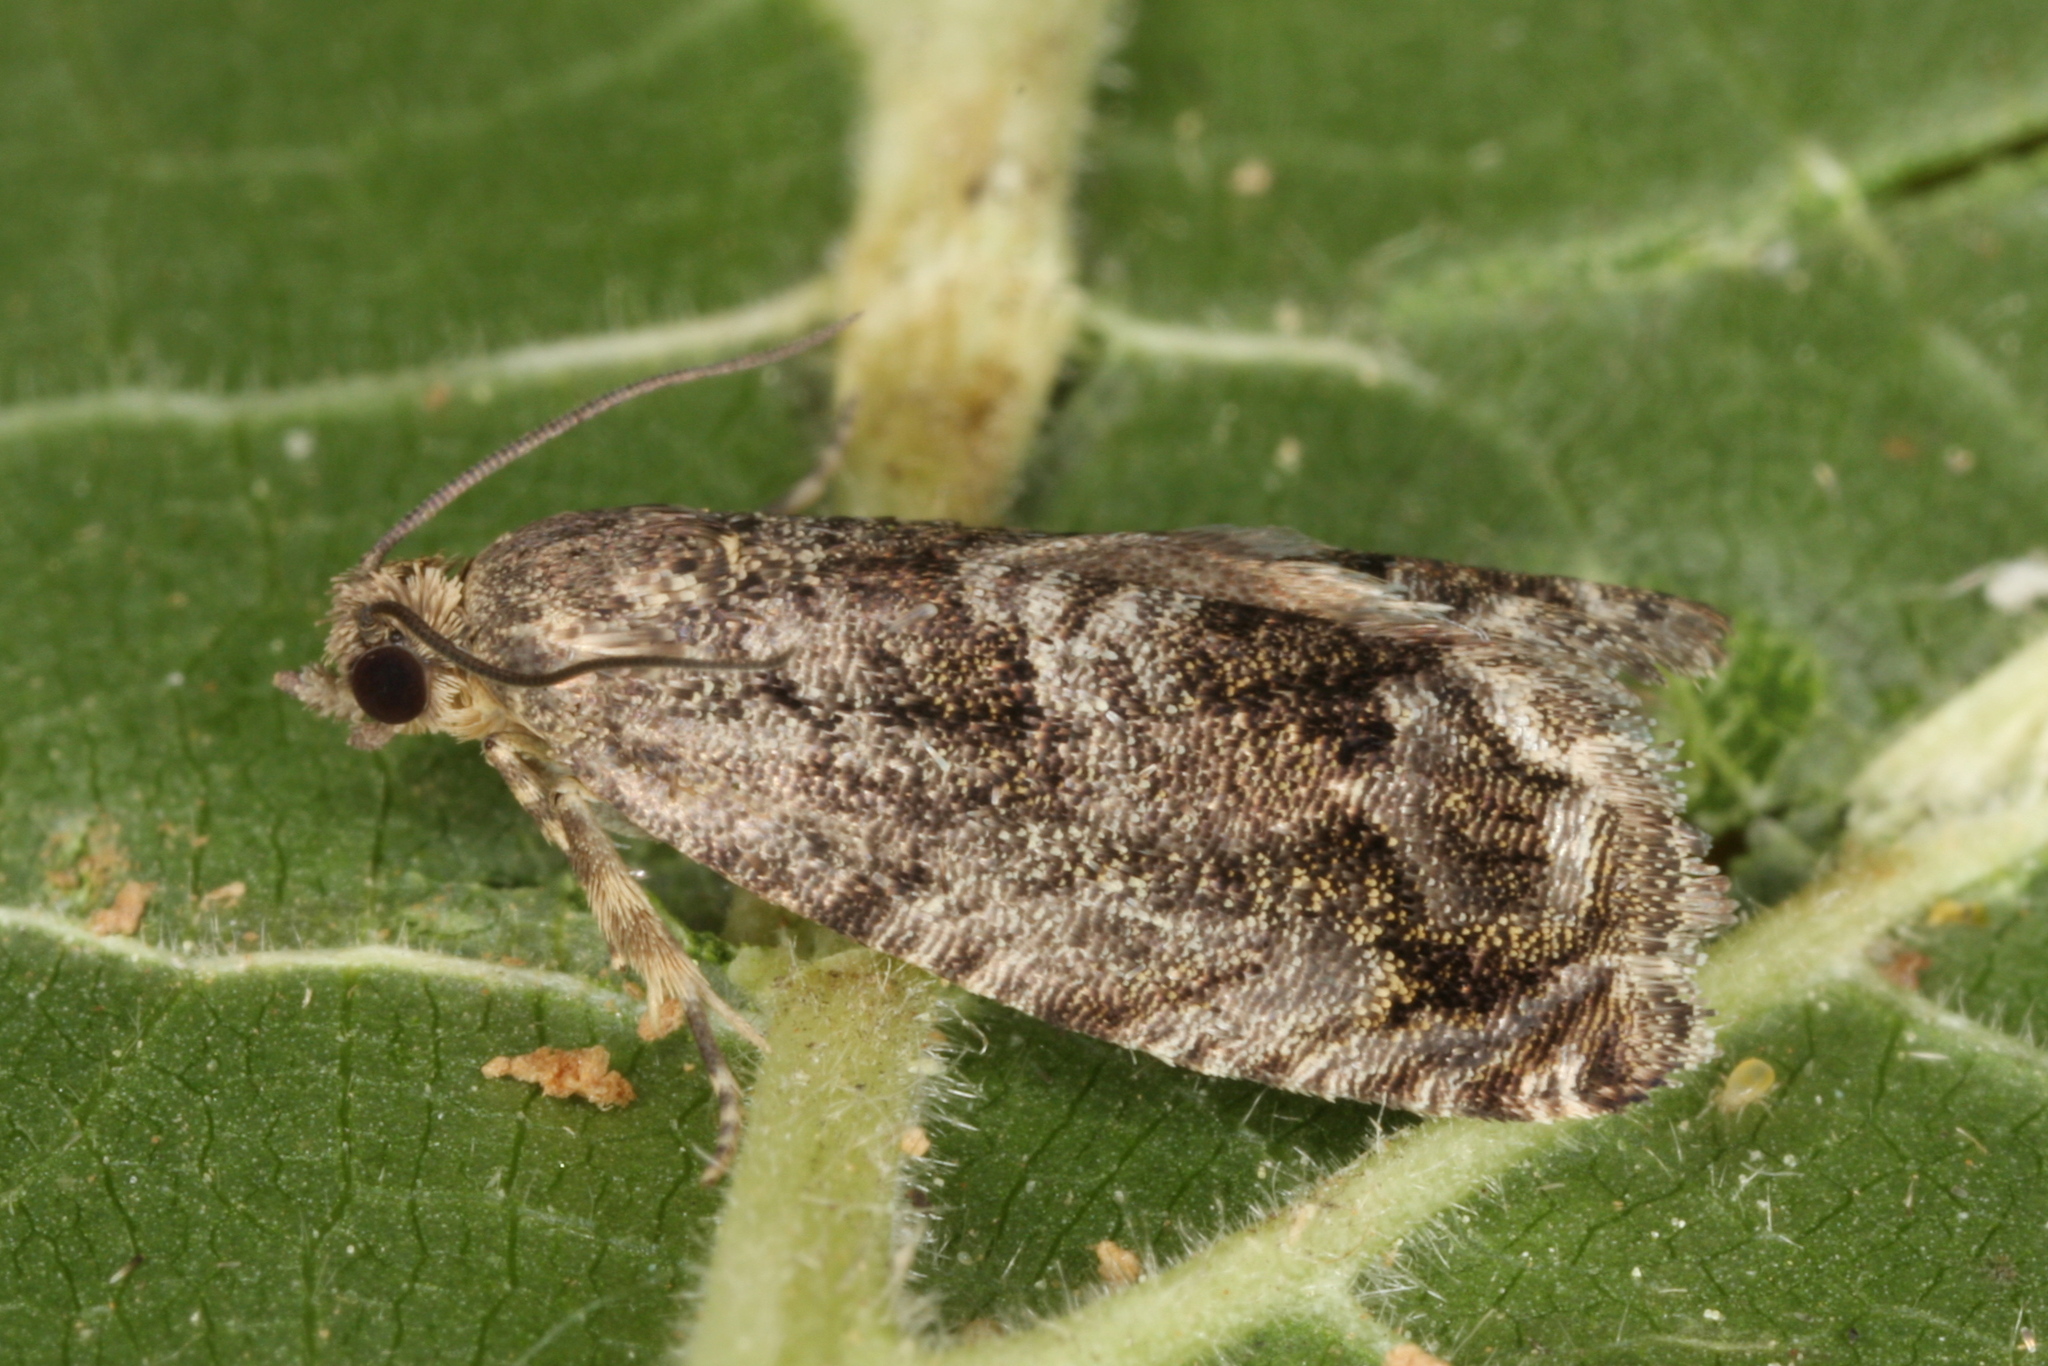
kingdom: Animalia
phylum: Arthropoda
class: Insecta
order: Lepidoptera
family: Tortricidae
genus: Cydia
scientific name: Cydia fagiglandana
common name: Large beech piercer
